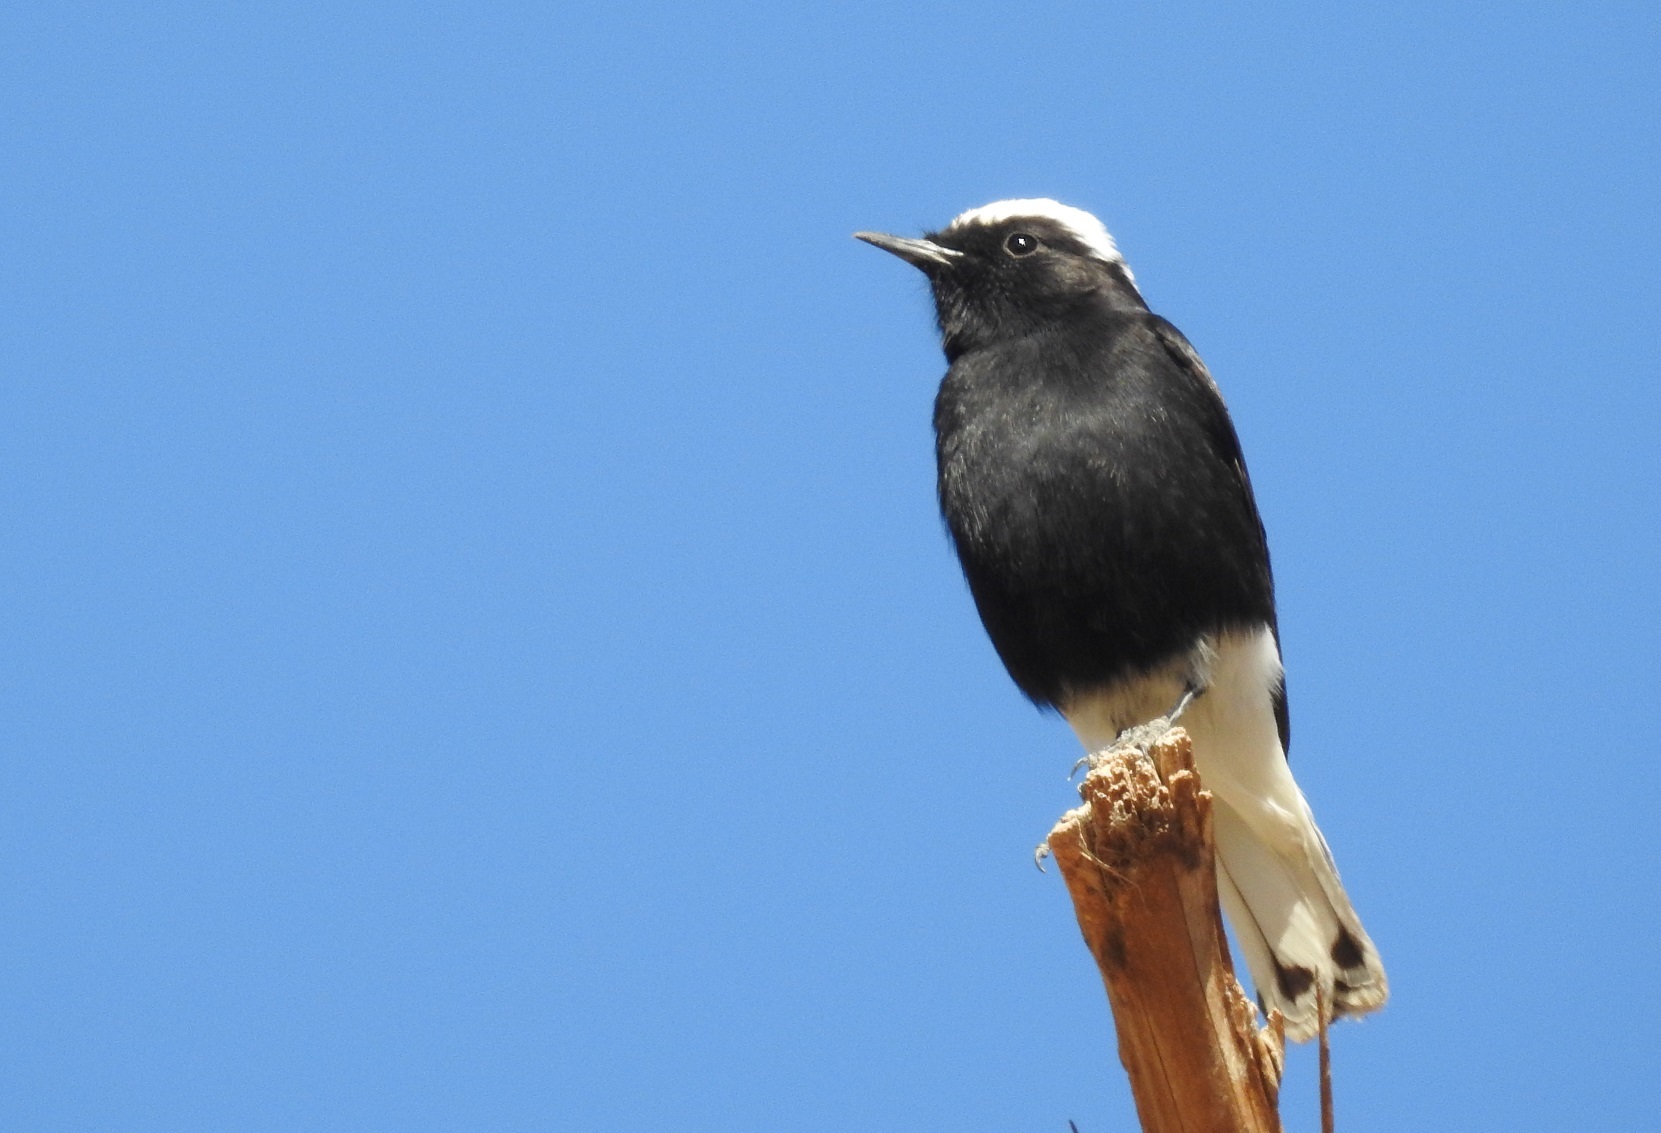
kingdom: Animalia
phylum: Chordata
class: Aves
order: Passeriformes
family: Muscicapidae
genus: Oenanthe
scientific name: Oenanthe leucopyga
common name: White-crowned wheatear
